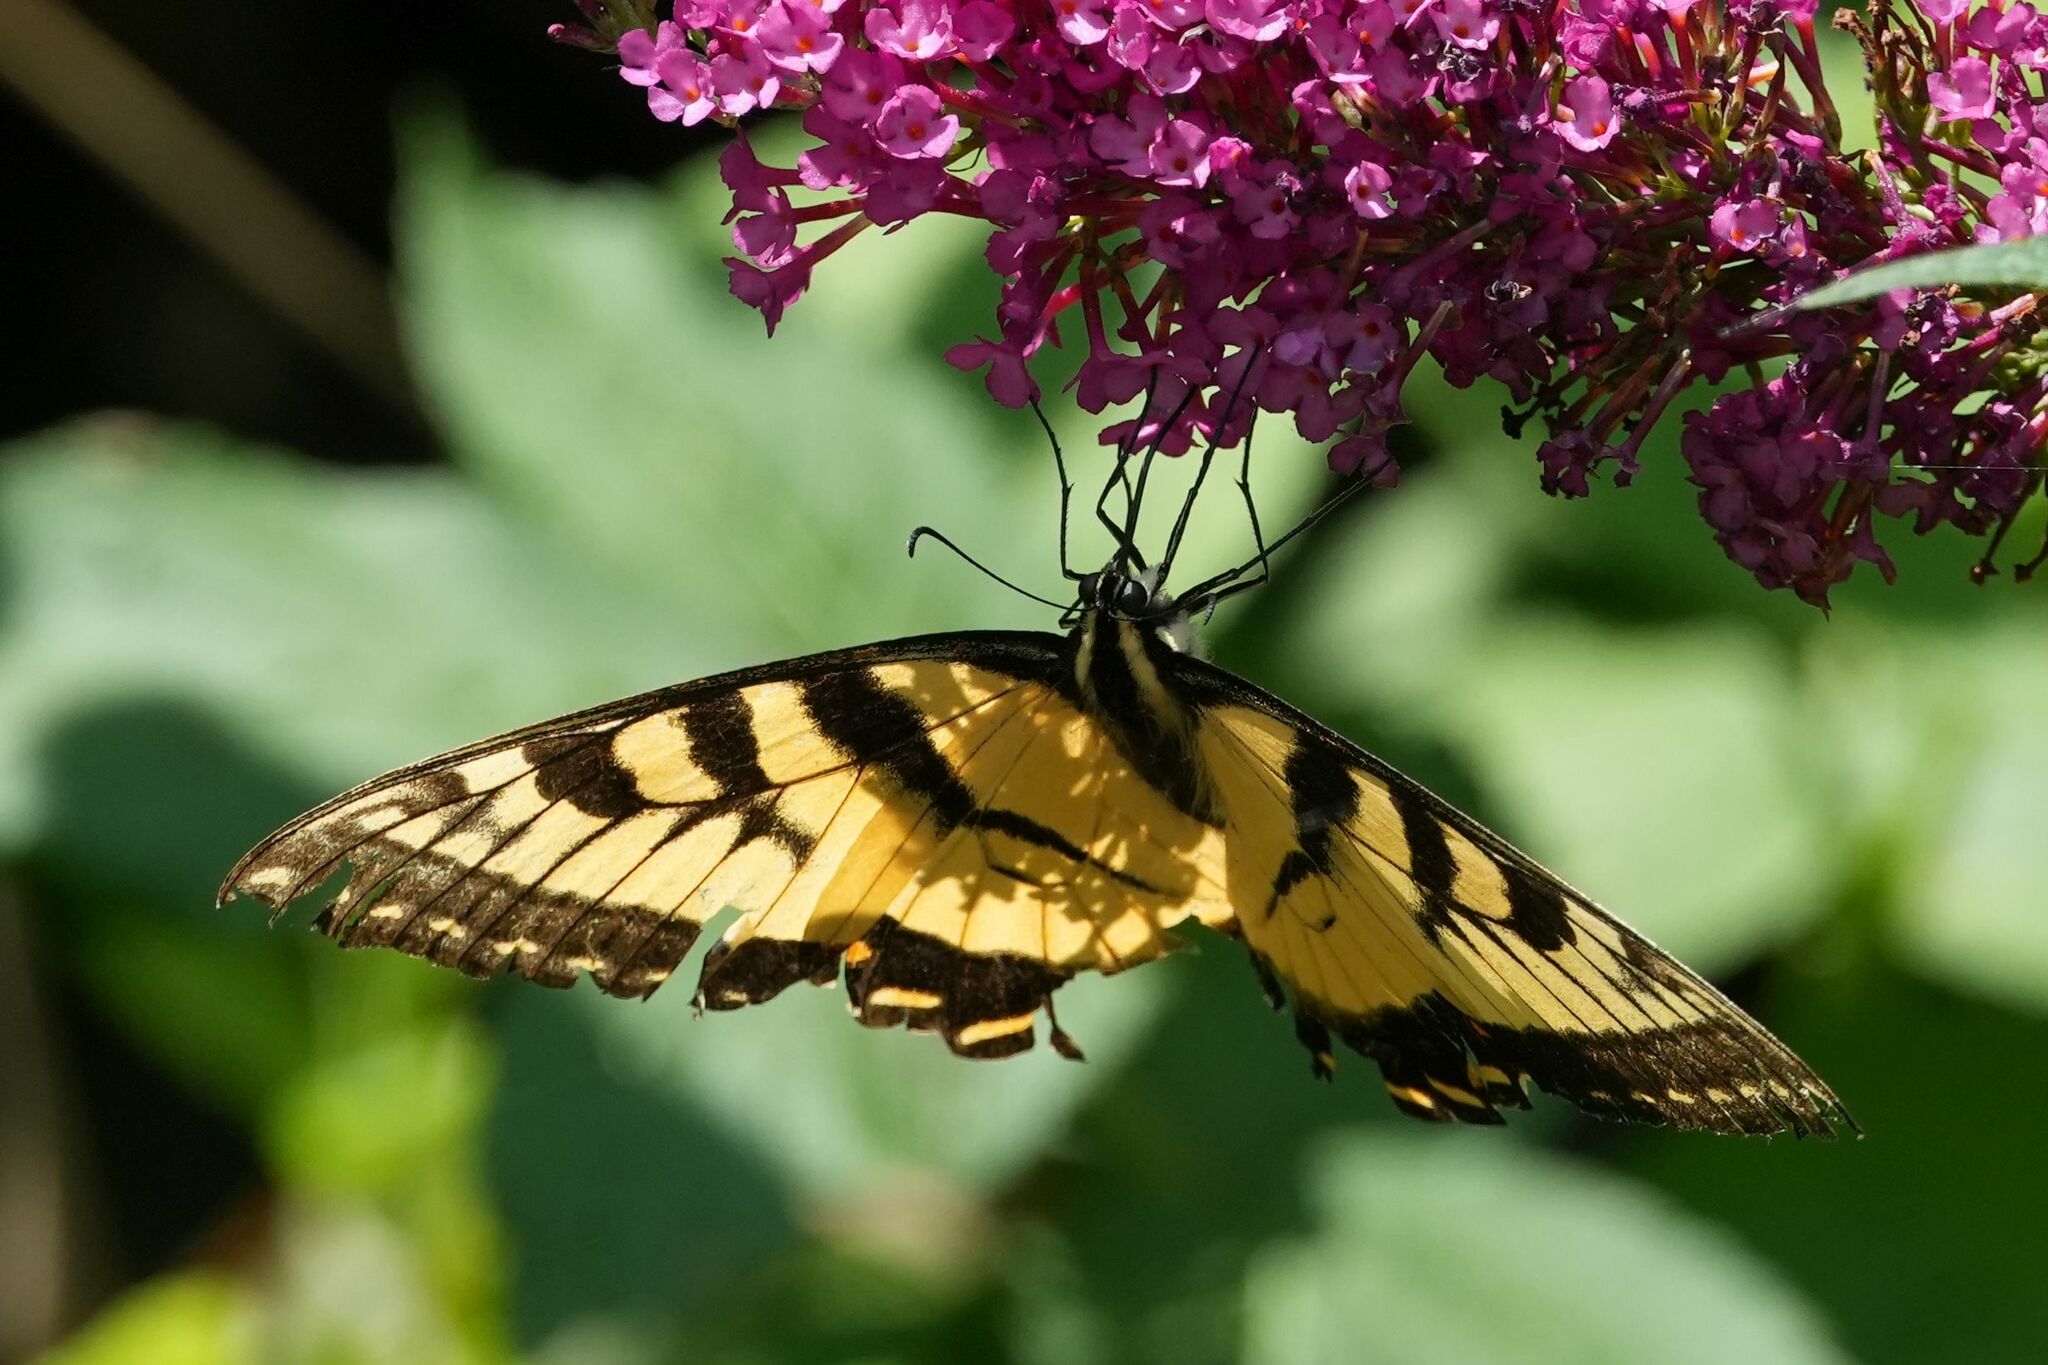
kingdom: Animalia
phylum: Arthropoda
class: Insecta
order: Lepidoptera
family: Papilionidae
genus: Papilio
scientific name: Papilio
